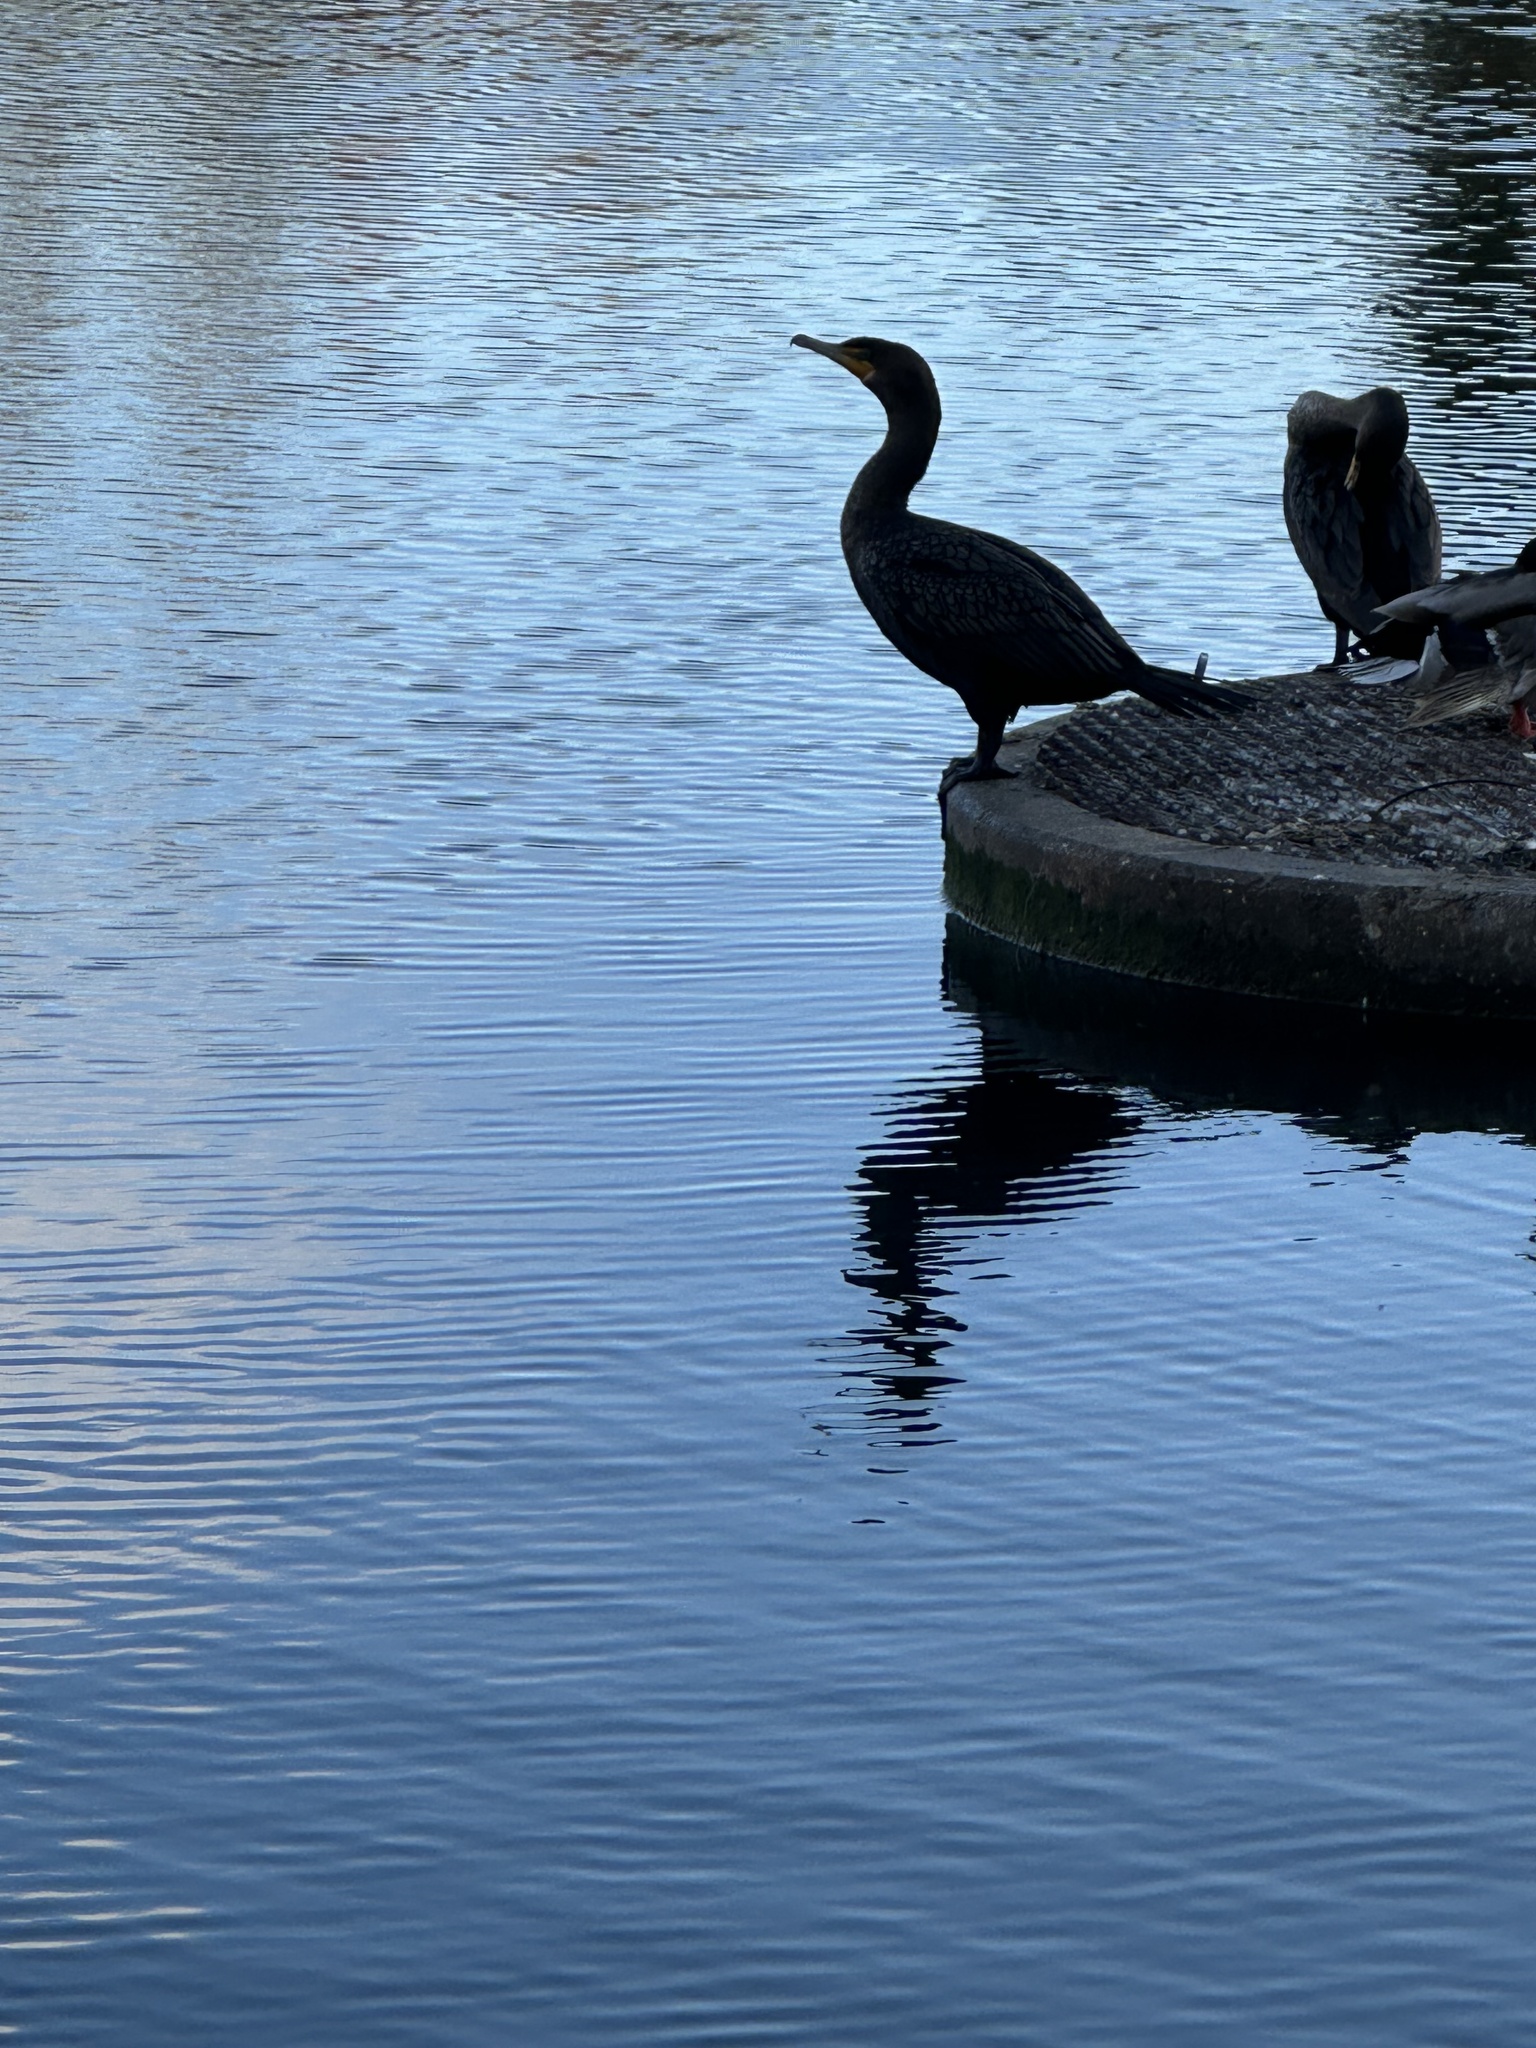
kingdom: Animalia
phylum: Chordata
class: Aves
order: Suliformes
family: Phalacrocoracidae
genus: Phalacrocorax
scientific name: Phalacrocorax auritus
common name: Double-crested cormorant
